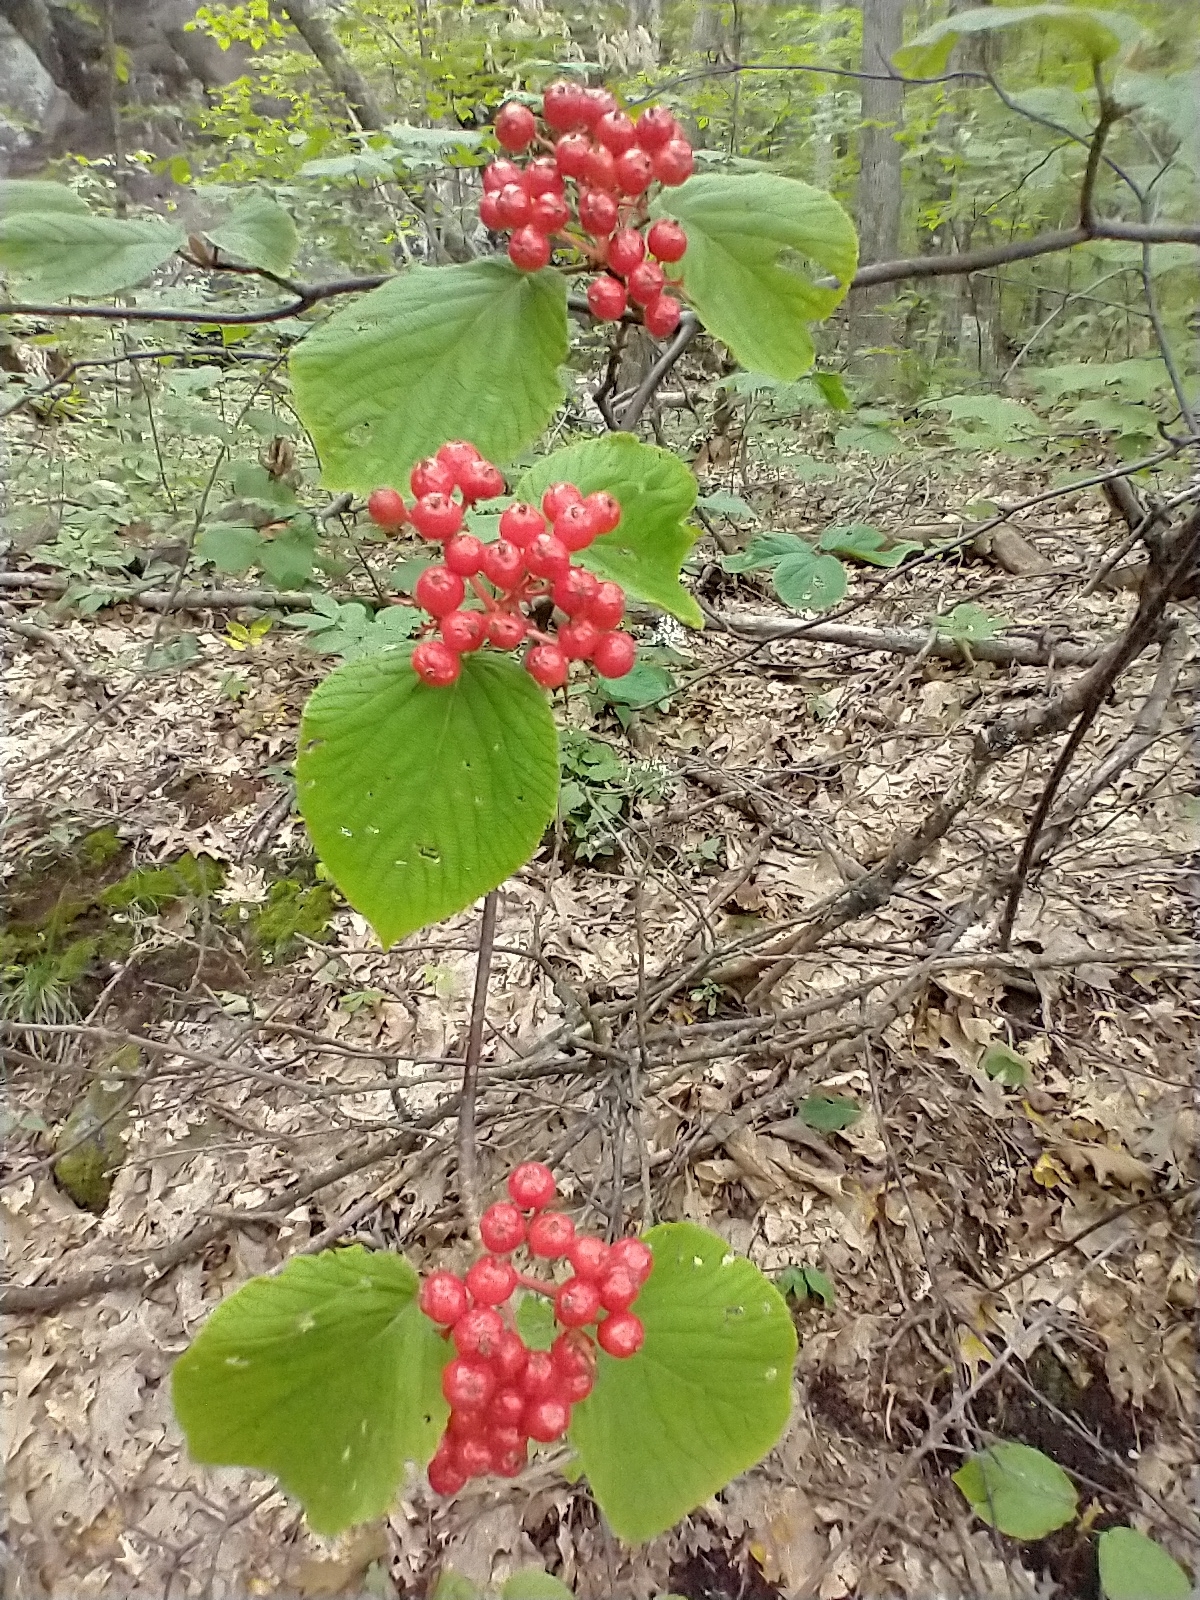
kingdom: Plantae
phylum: Tracheophyta
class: Magnoliopsida
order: Dipsacales
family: Viburnaceae
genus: Viburnum
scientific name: Viburnum lantanoides
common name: Hobblebush
